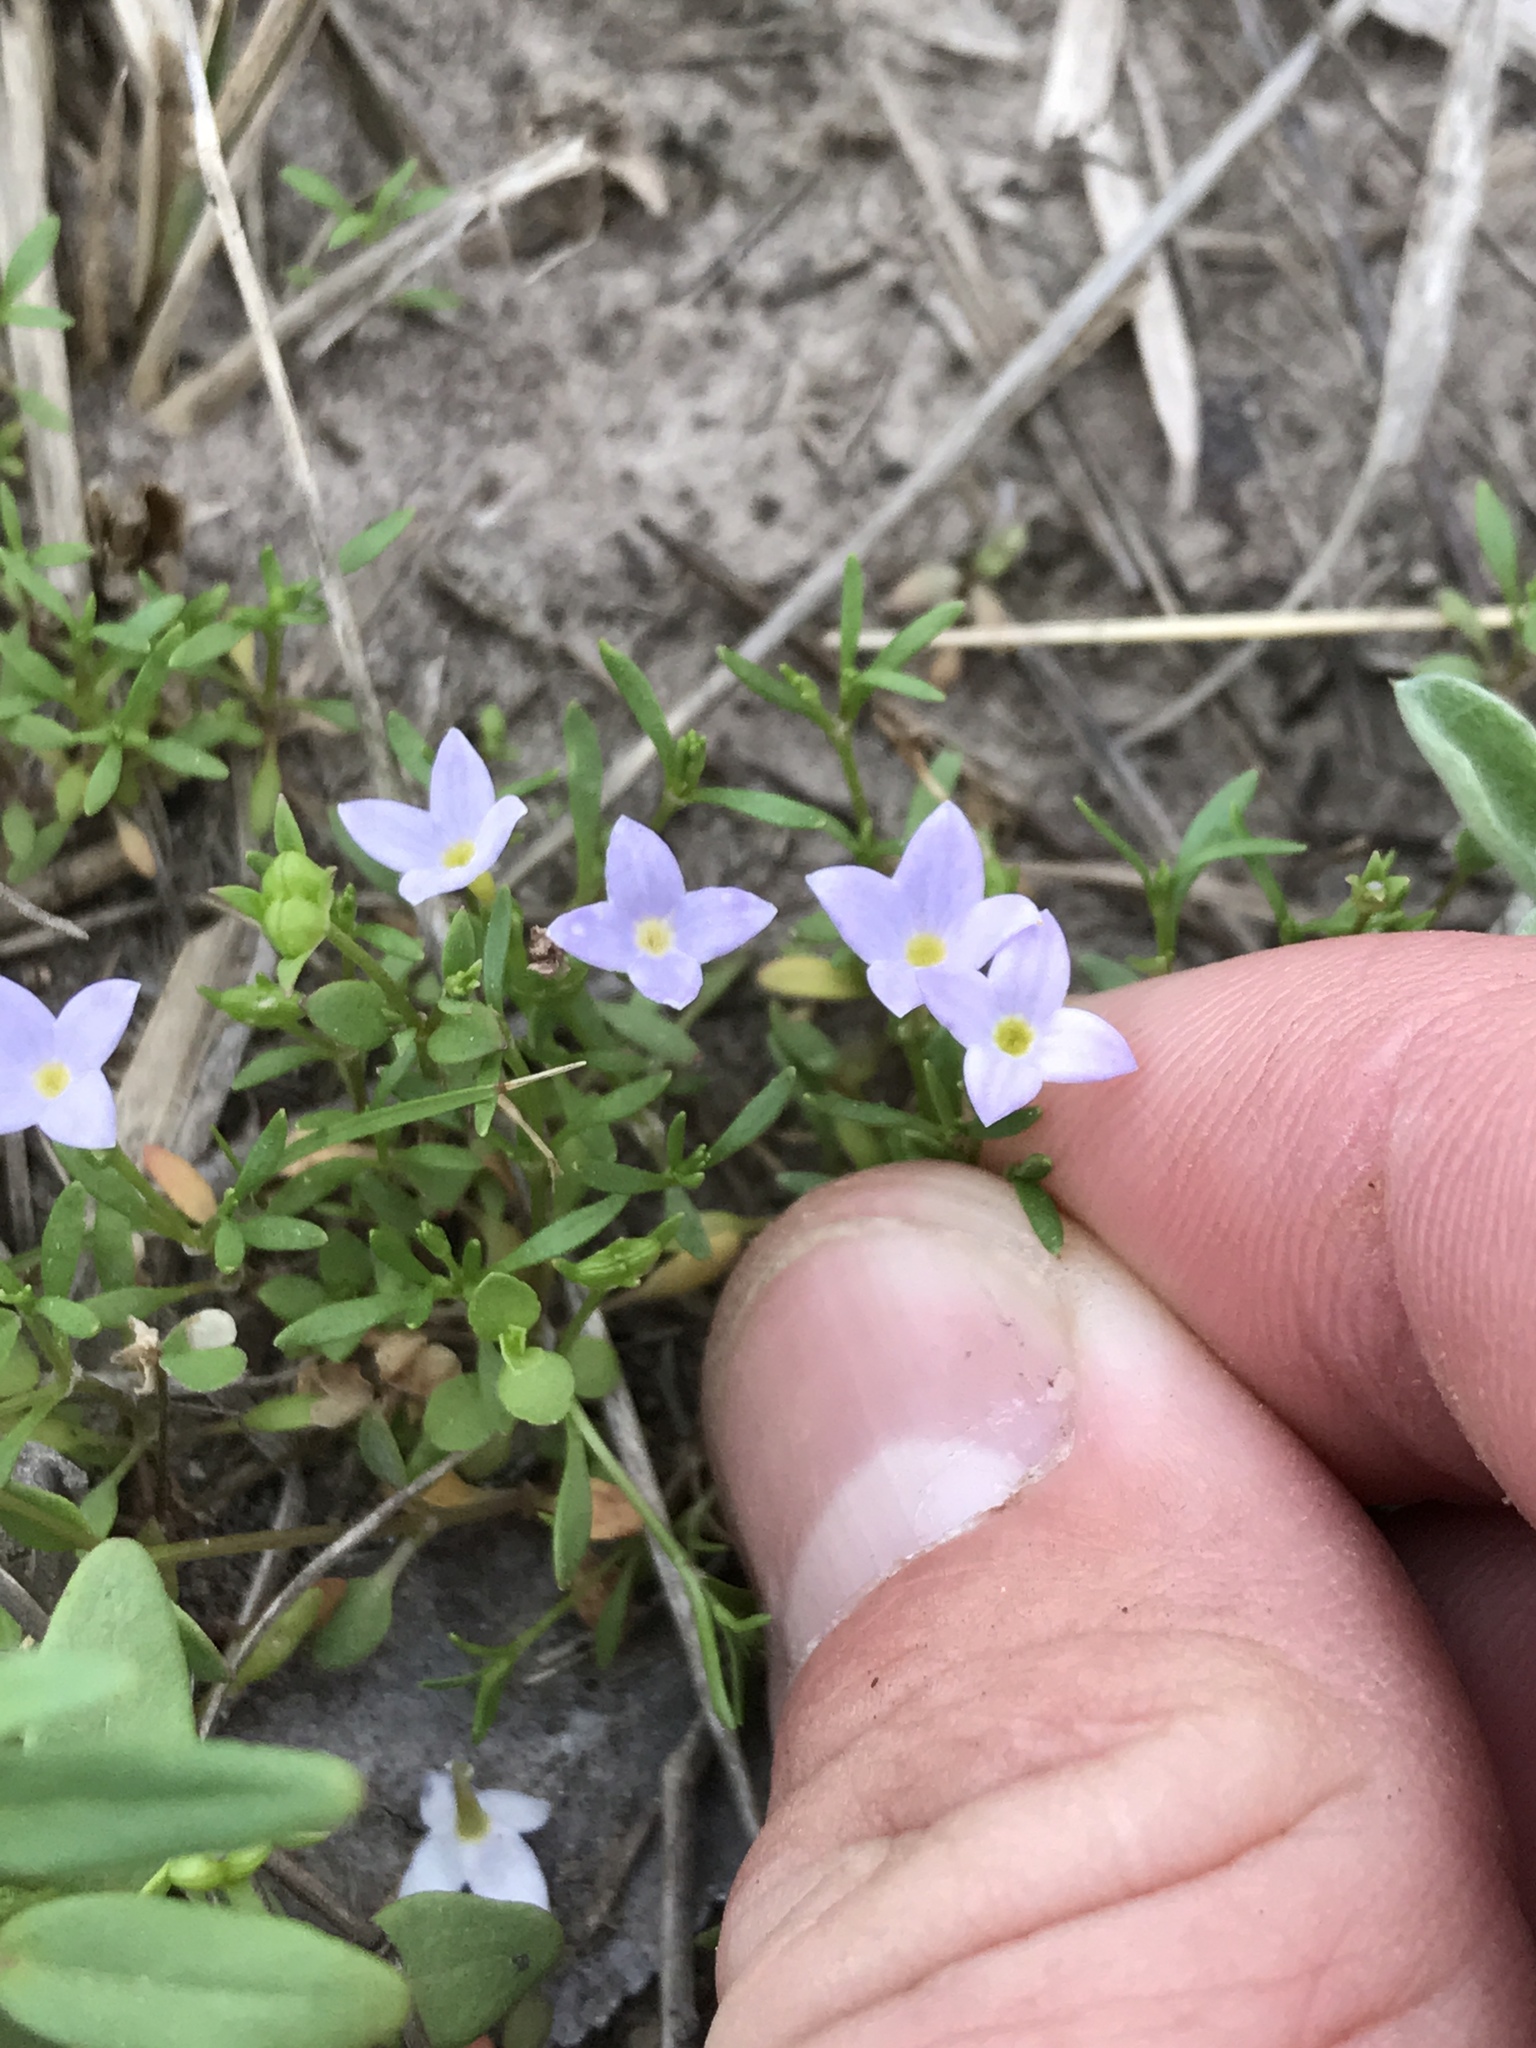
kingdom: Plantae
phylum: Tracheophyta
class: Magnoliopsida
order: Gentianales
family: Rubiaceae
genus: Houstonia
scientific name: Houstonia pusilla
